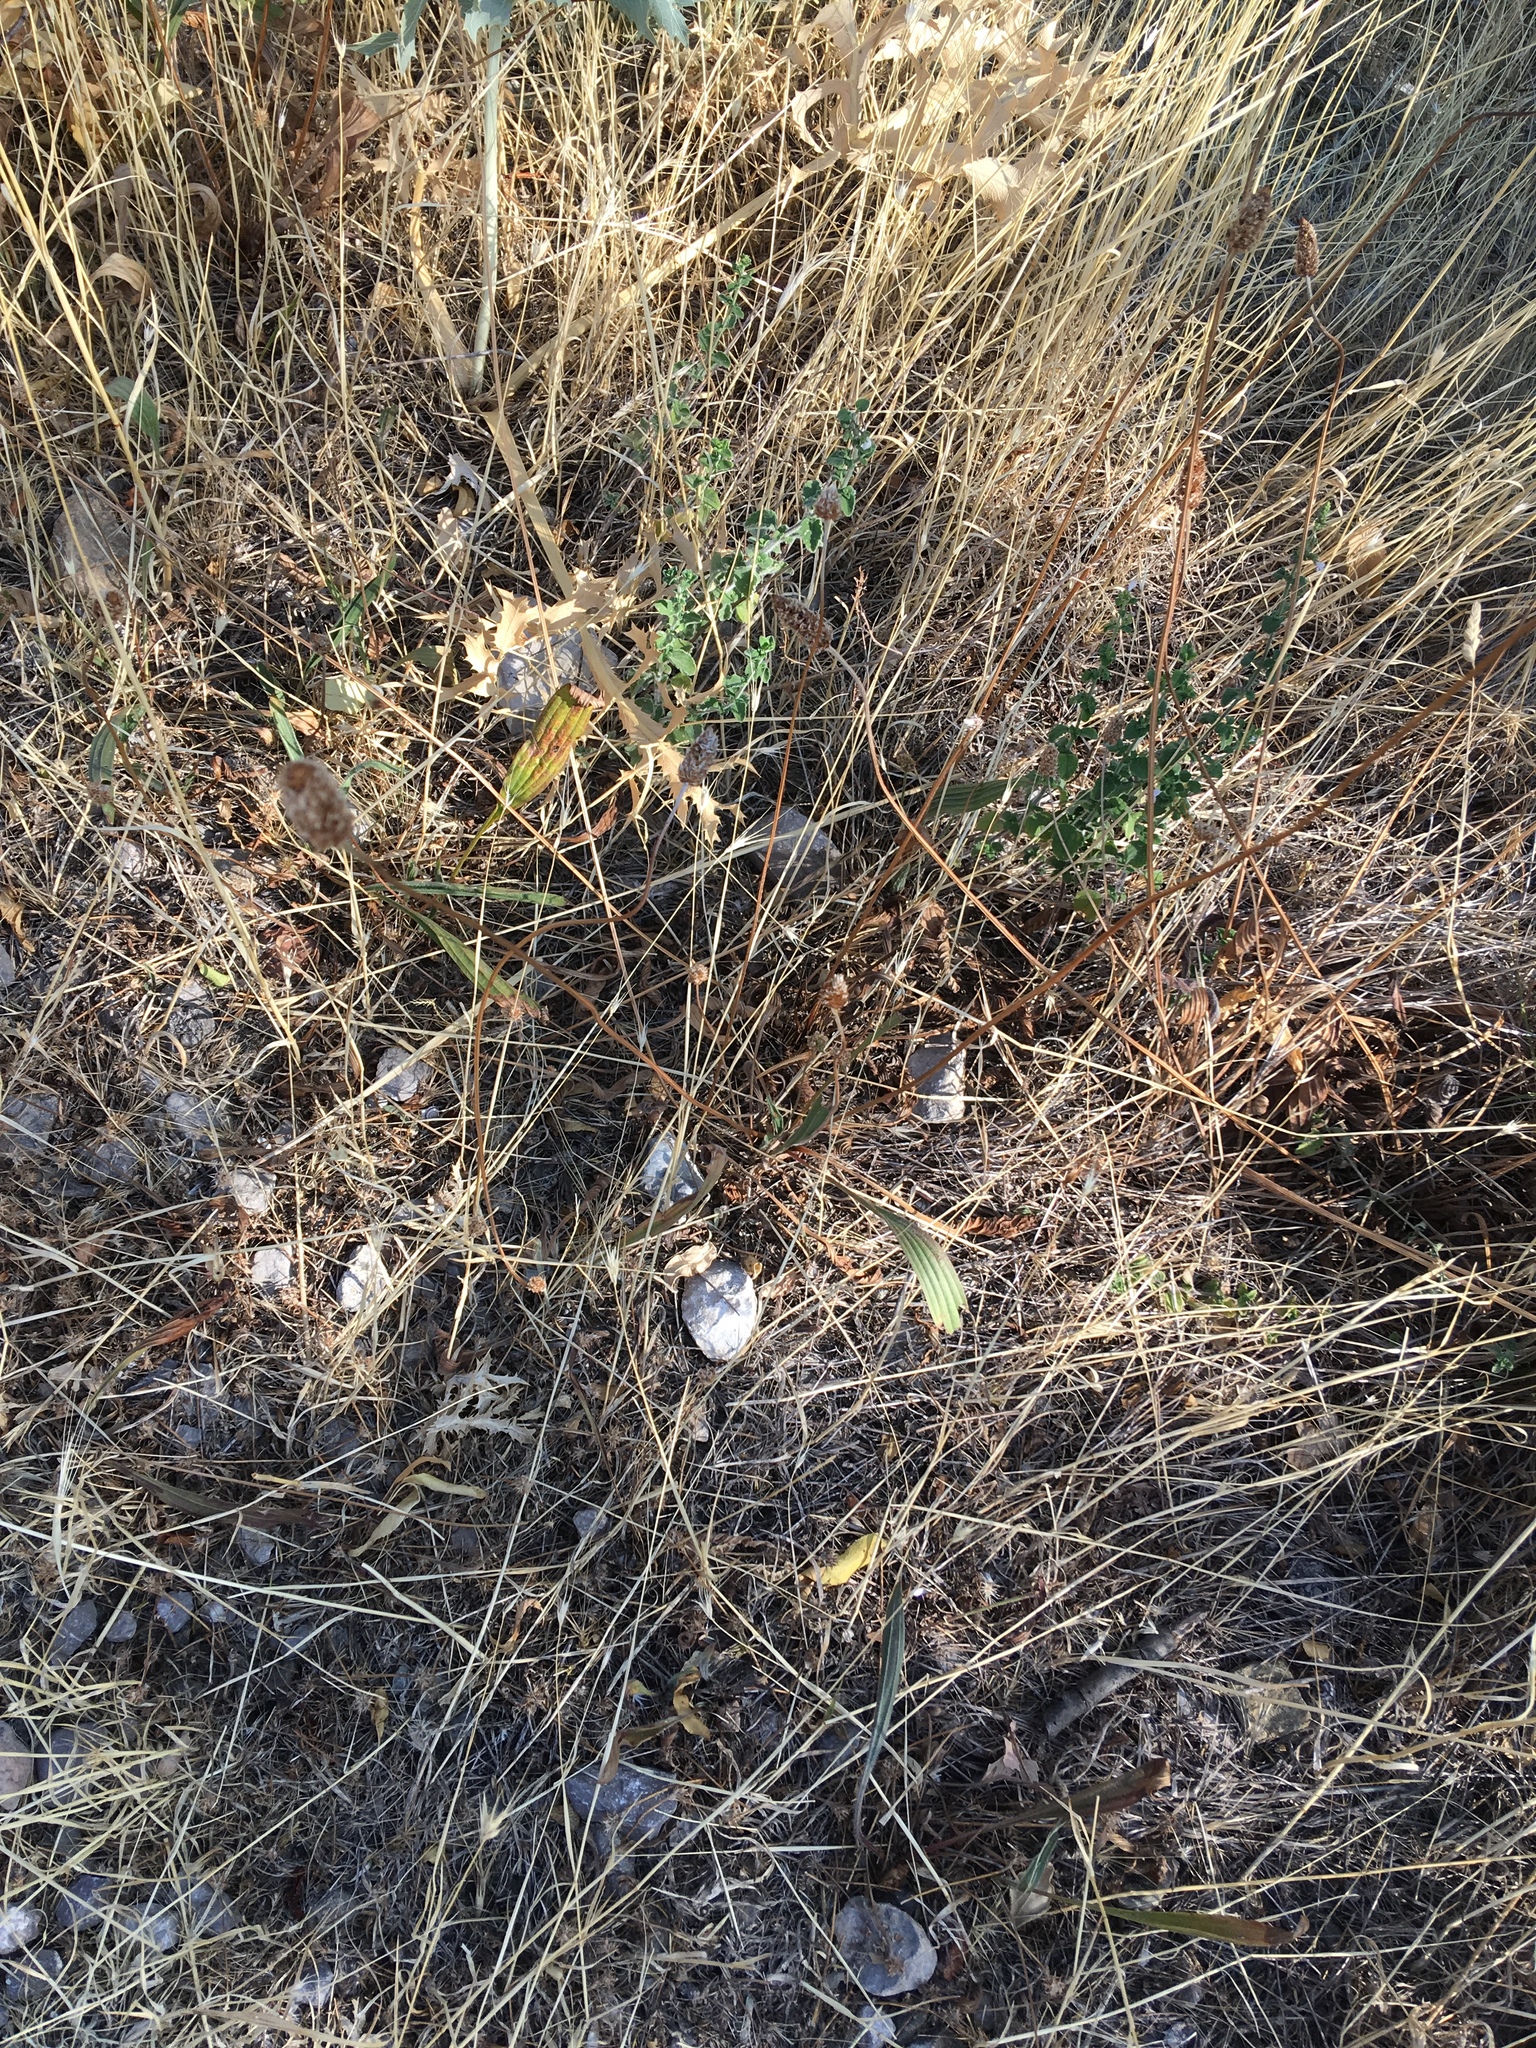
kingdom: Plantae
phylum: Tracheophyta
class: Magnoliopsida
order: Lamiales
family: Plantaginaceae
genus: Plantago
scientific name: Plantago lanceolata
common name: Ribwort plantain
